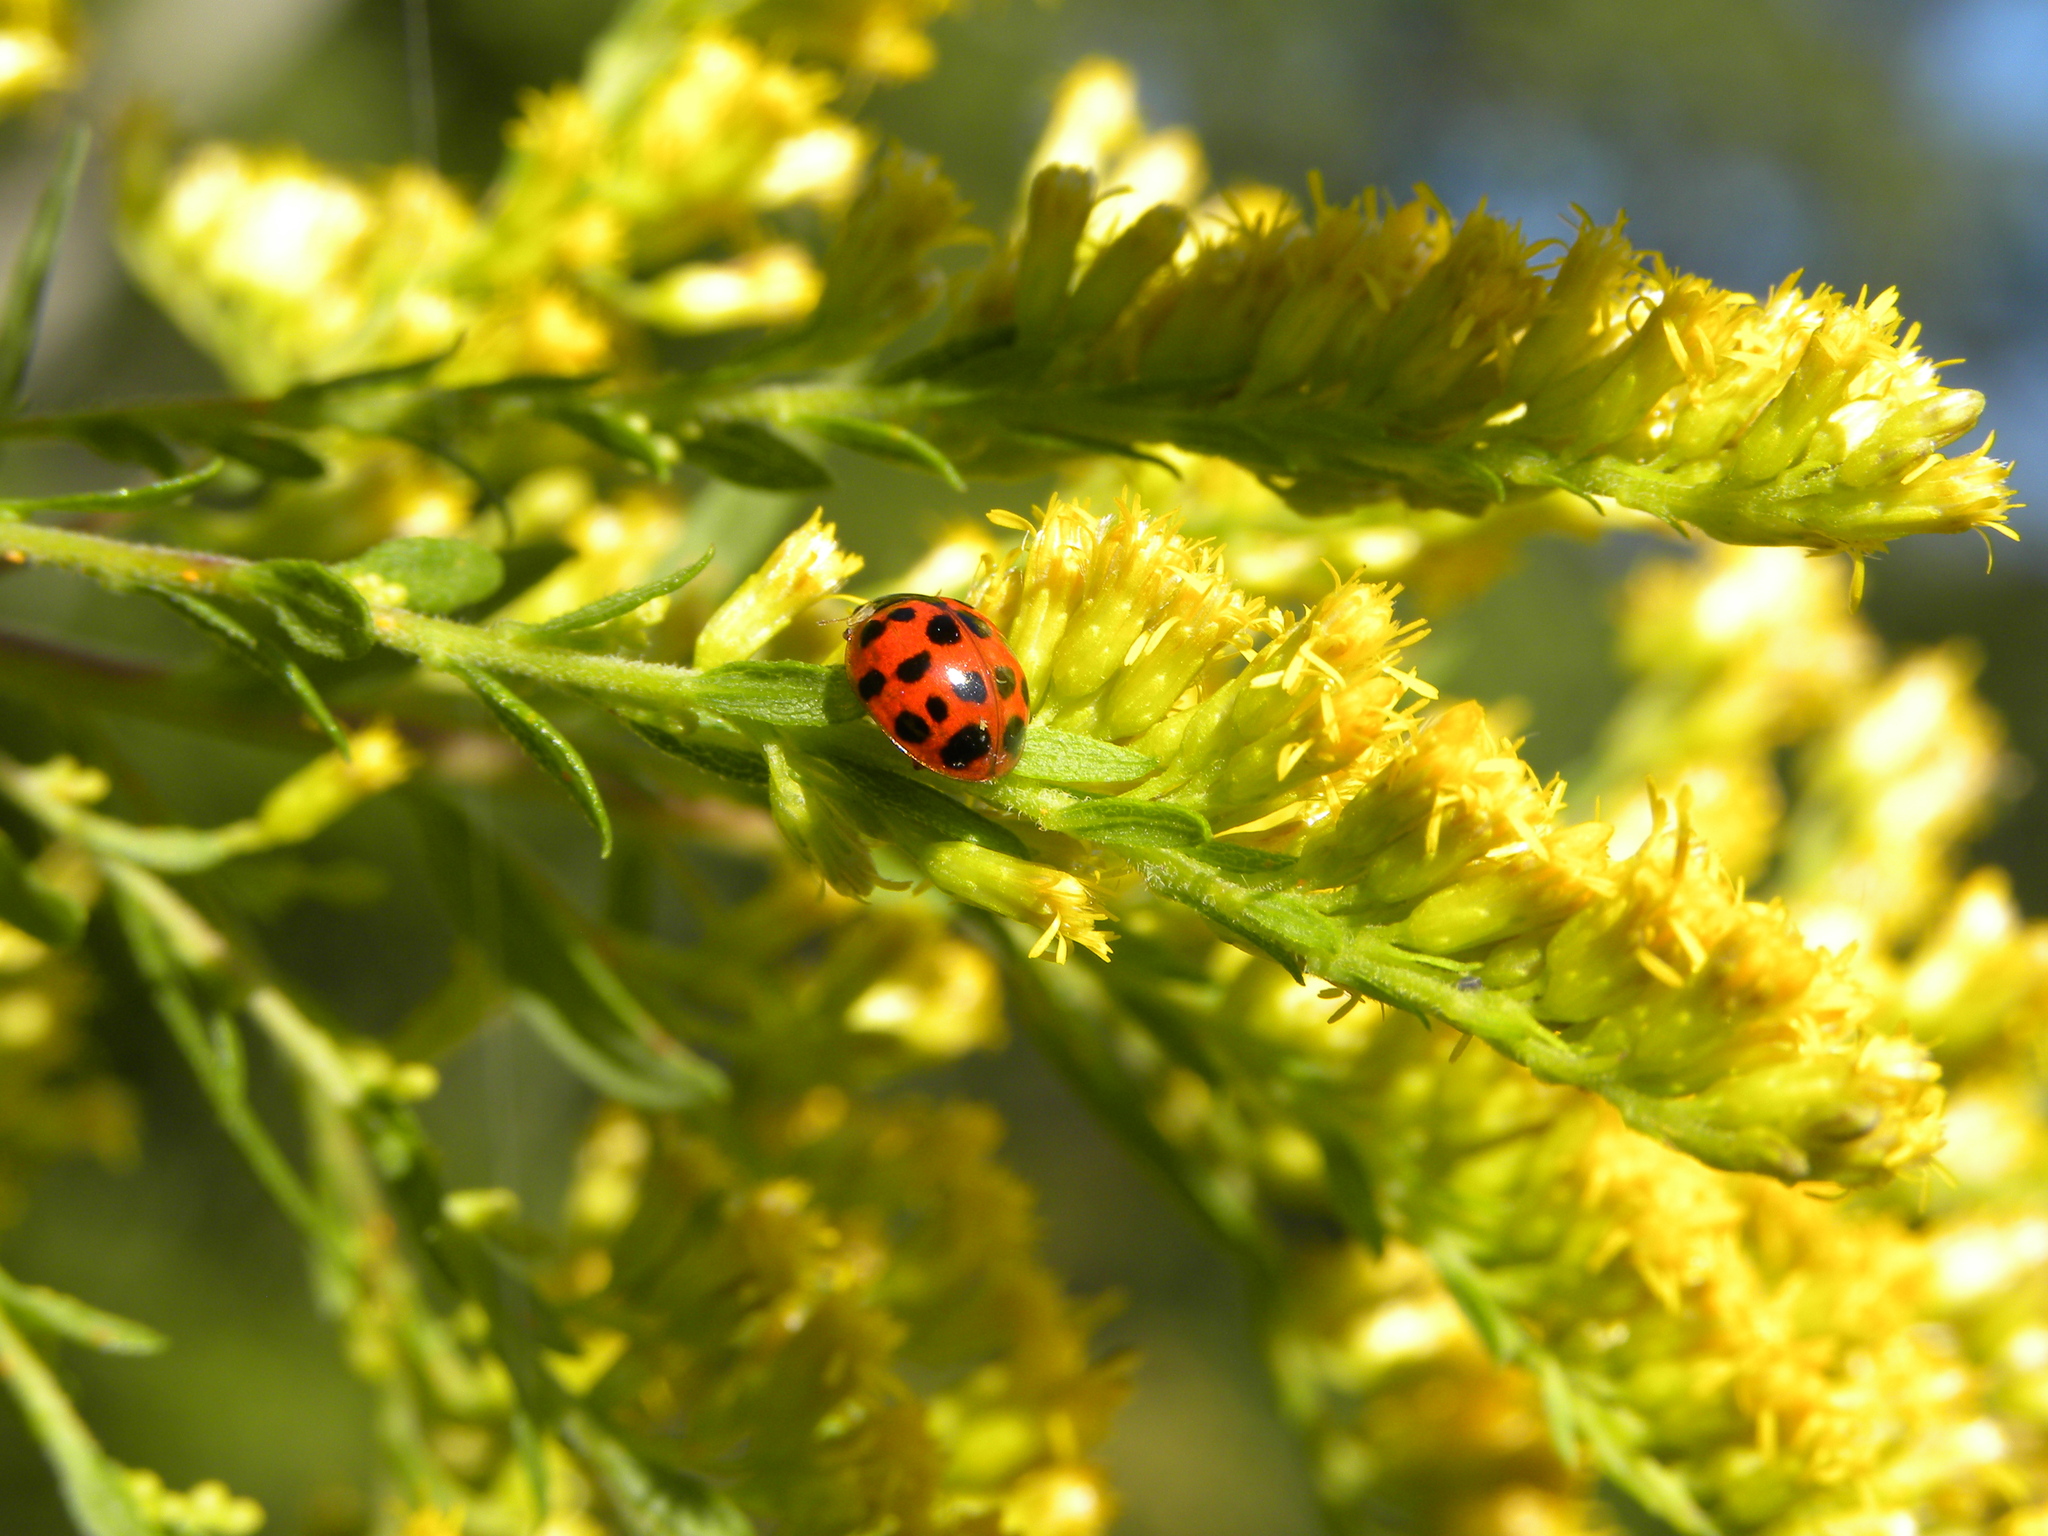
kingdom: Animalia
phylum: Arthropoda
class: Insecta
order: Coleoptera
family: Coccinellidae
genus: Harmonia
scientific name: Harmonia axyridis
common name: Harlequin ladybird
